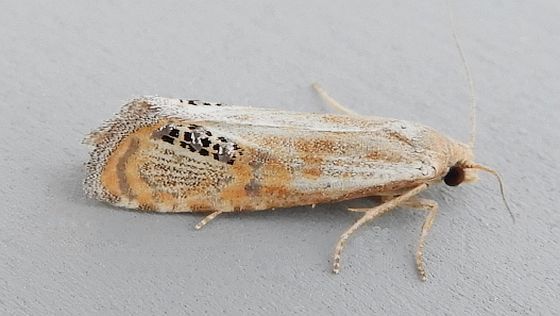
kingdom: Animalia
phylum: Arthropoda
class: Insecta
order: Lepidoptera
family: Tortricidae
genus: Pelochrista
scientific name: Pelochrista scintillana
